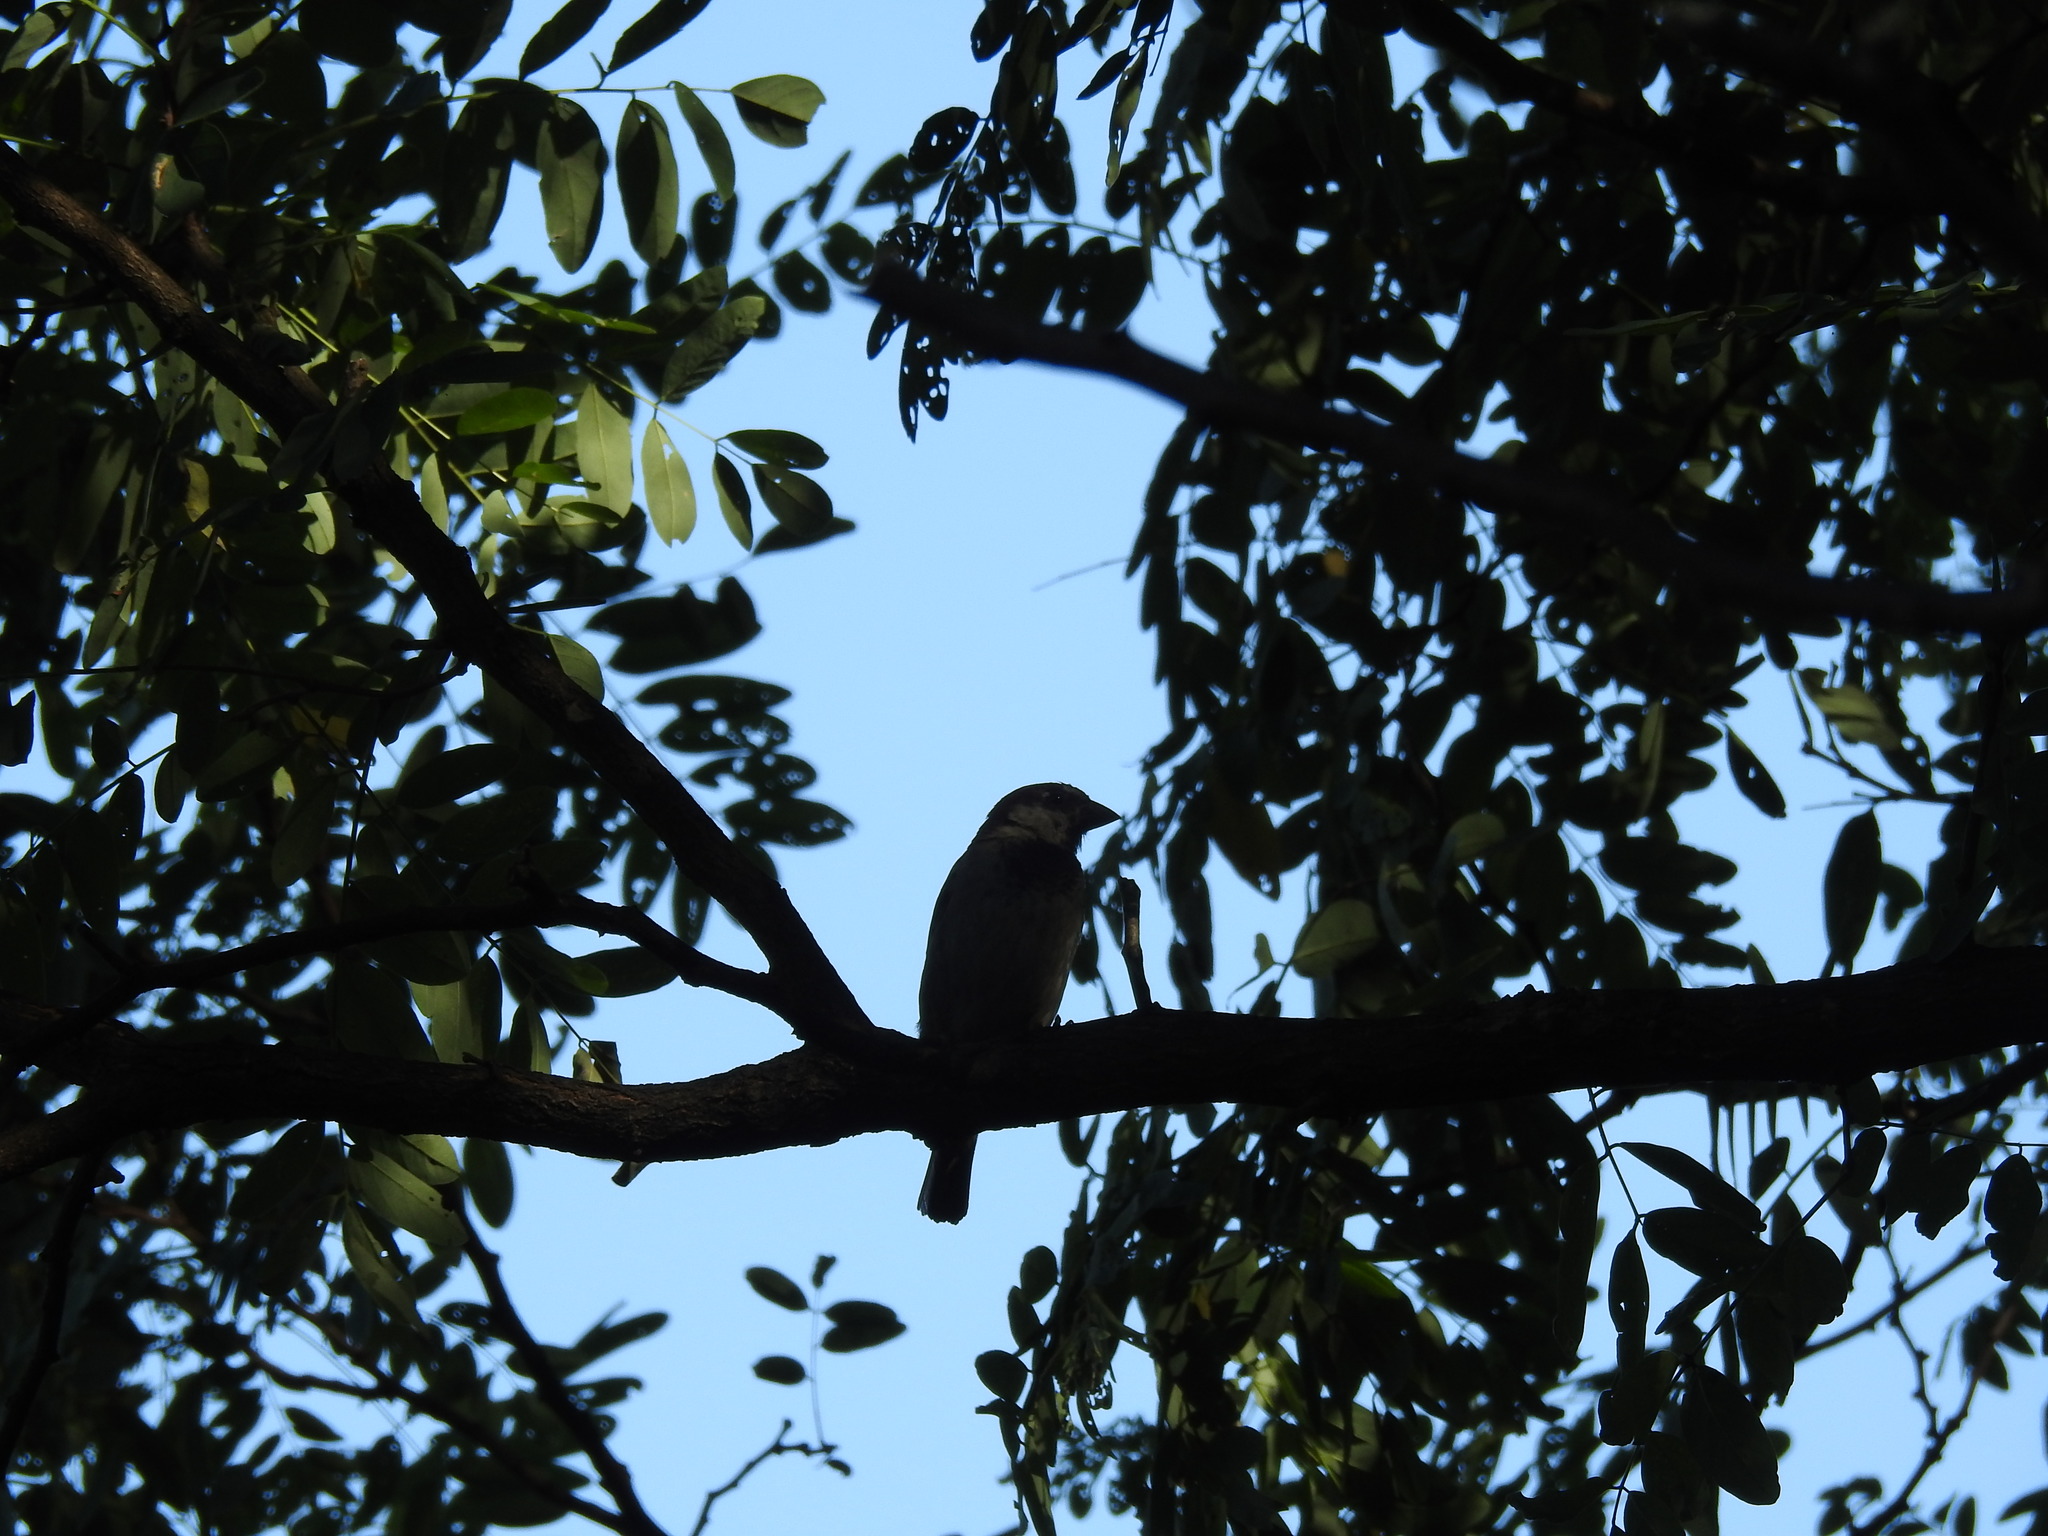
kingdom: Animalia
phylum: Chordata
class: Aves
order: Passeriformes
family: Passeridae
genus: Passer
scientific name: Passer domesticus
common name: House sparrow
